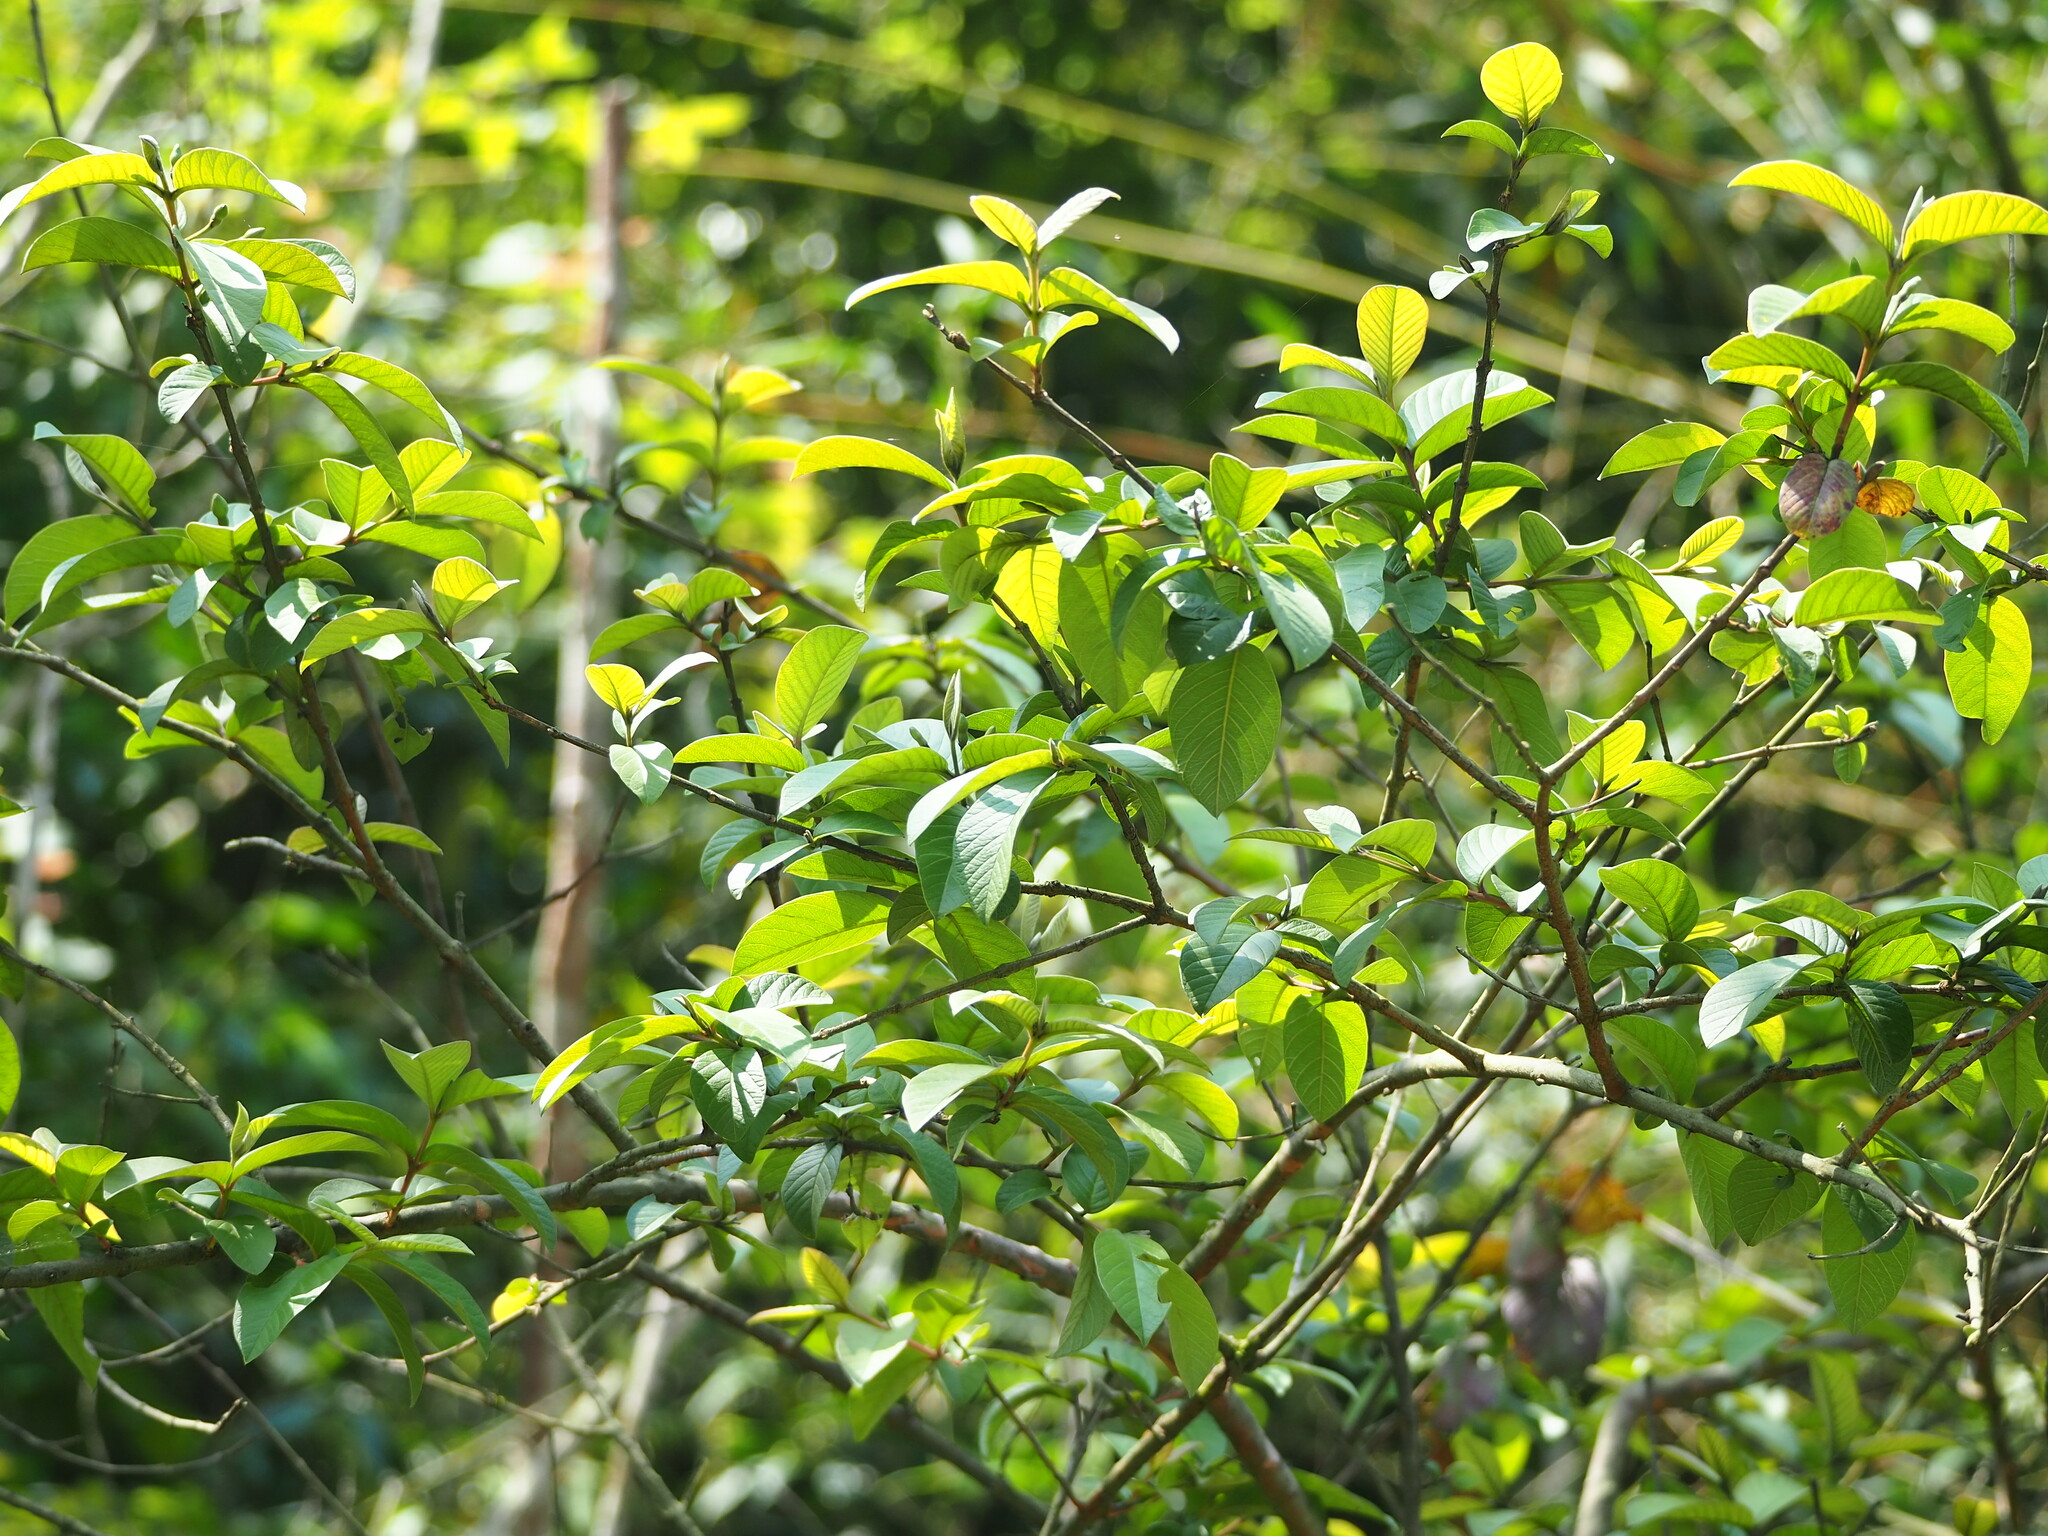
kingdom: Plantae
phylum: Tracheophyta
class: Magnoliopsida
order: Myrtales
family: Myrtaceae
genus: Psidium
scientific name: Psidium guajava
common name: Guava
